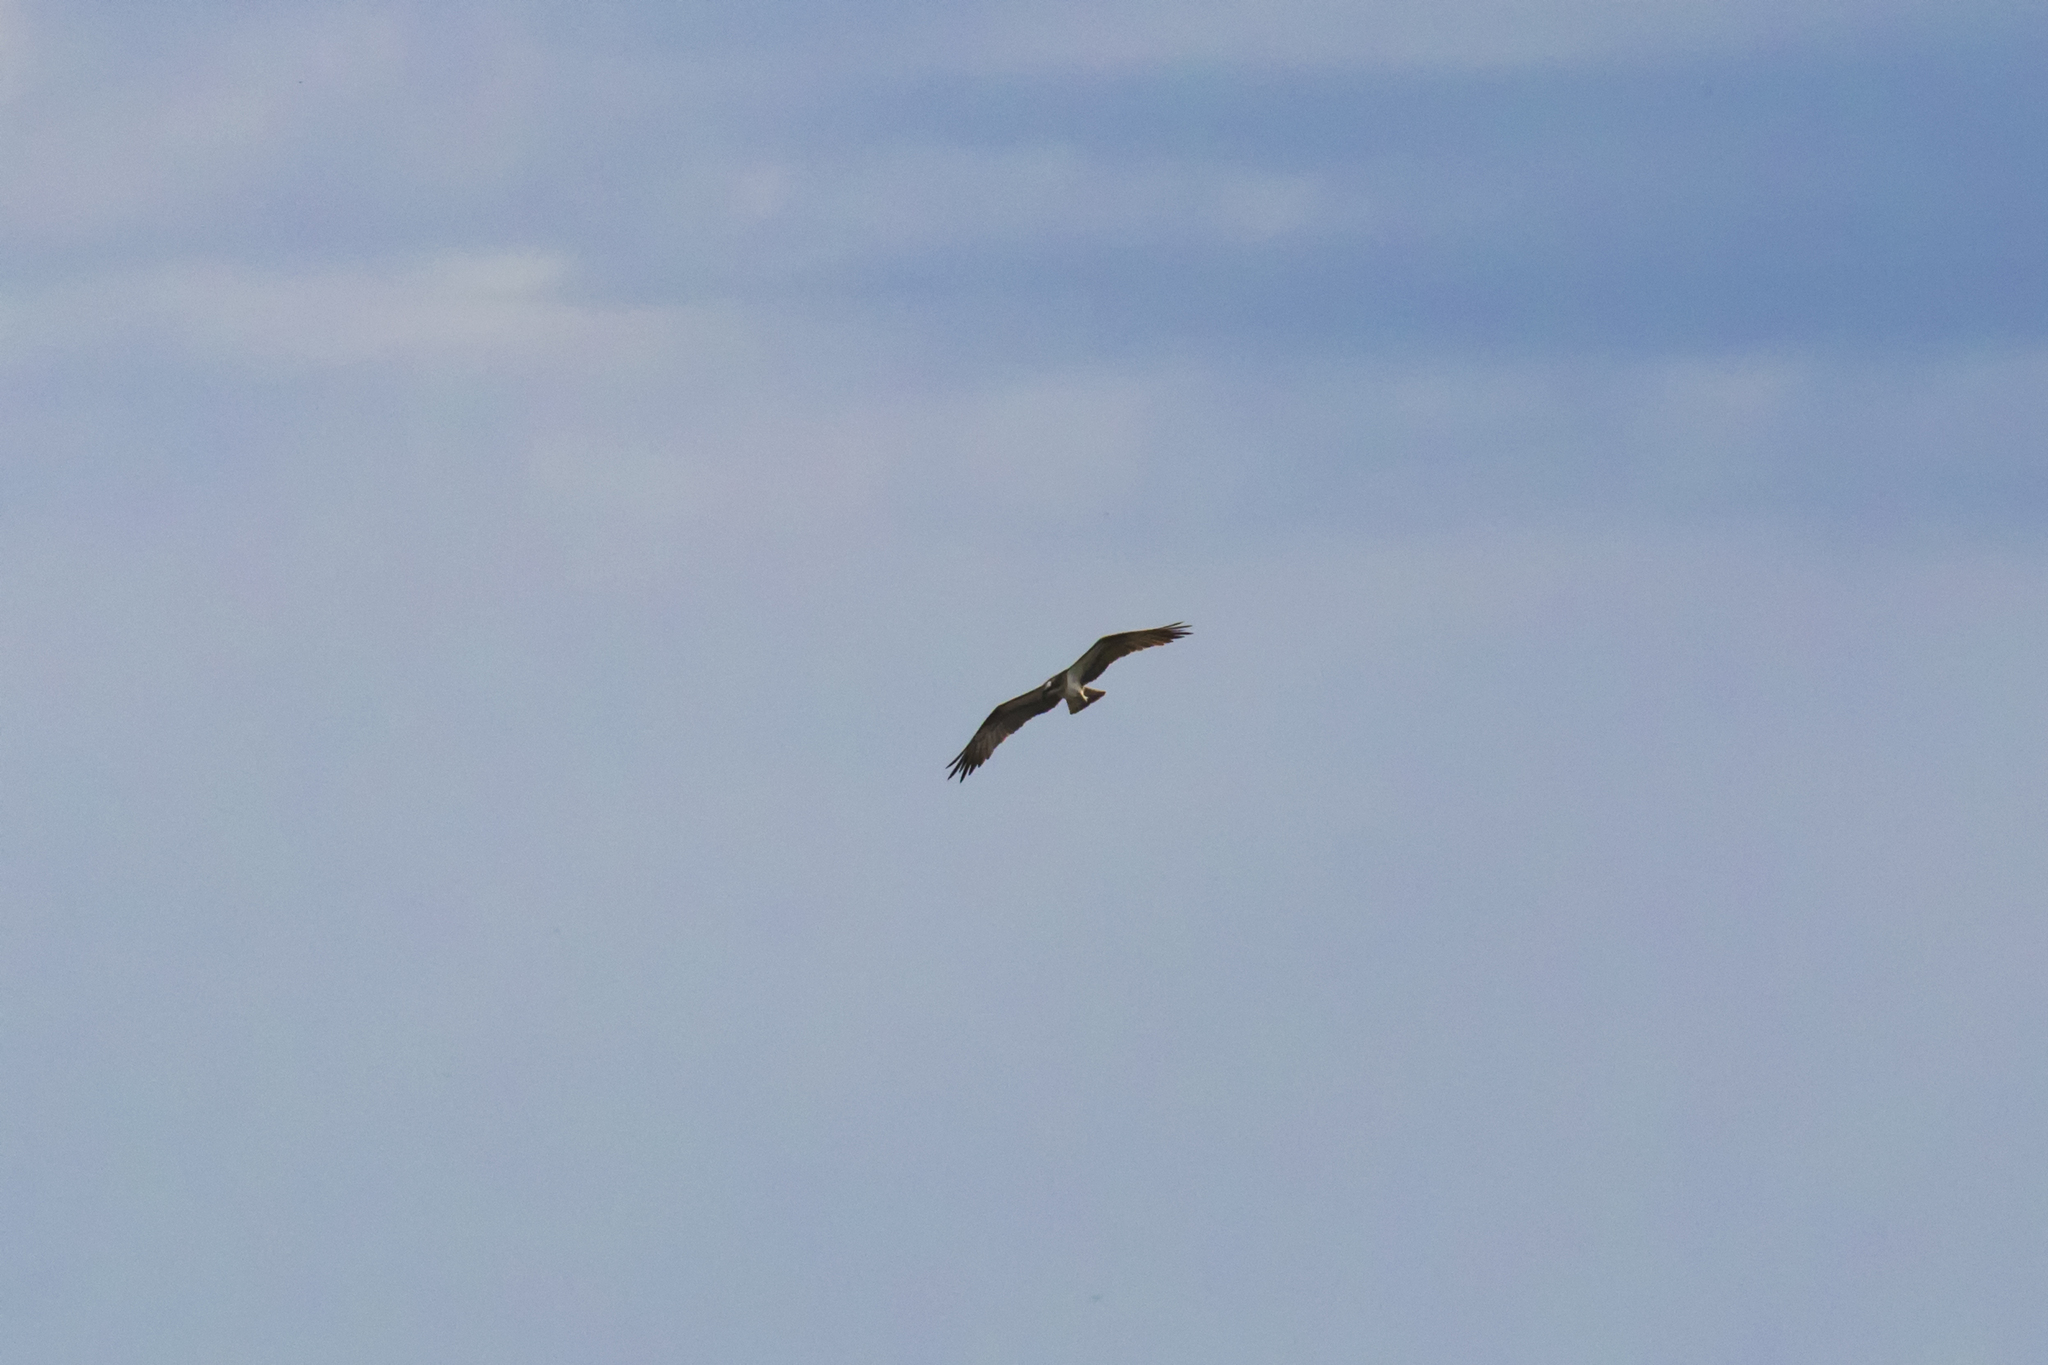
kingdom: Animalia
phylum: Chordata
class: Aves
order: Accipitriformes
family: Pandionidae
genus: Pandion
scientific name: Pandion haliaetus
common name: Osprey
